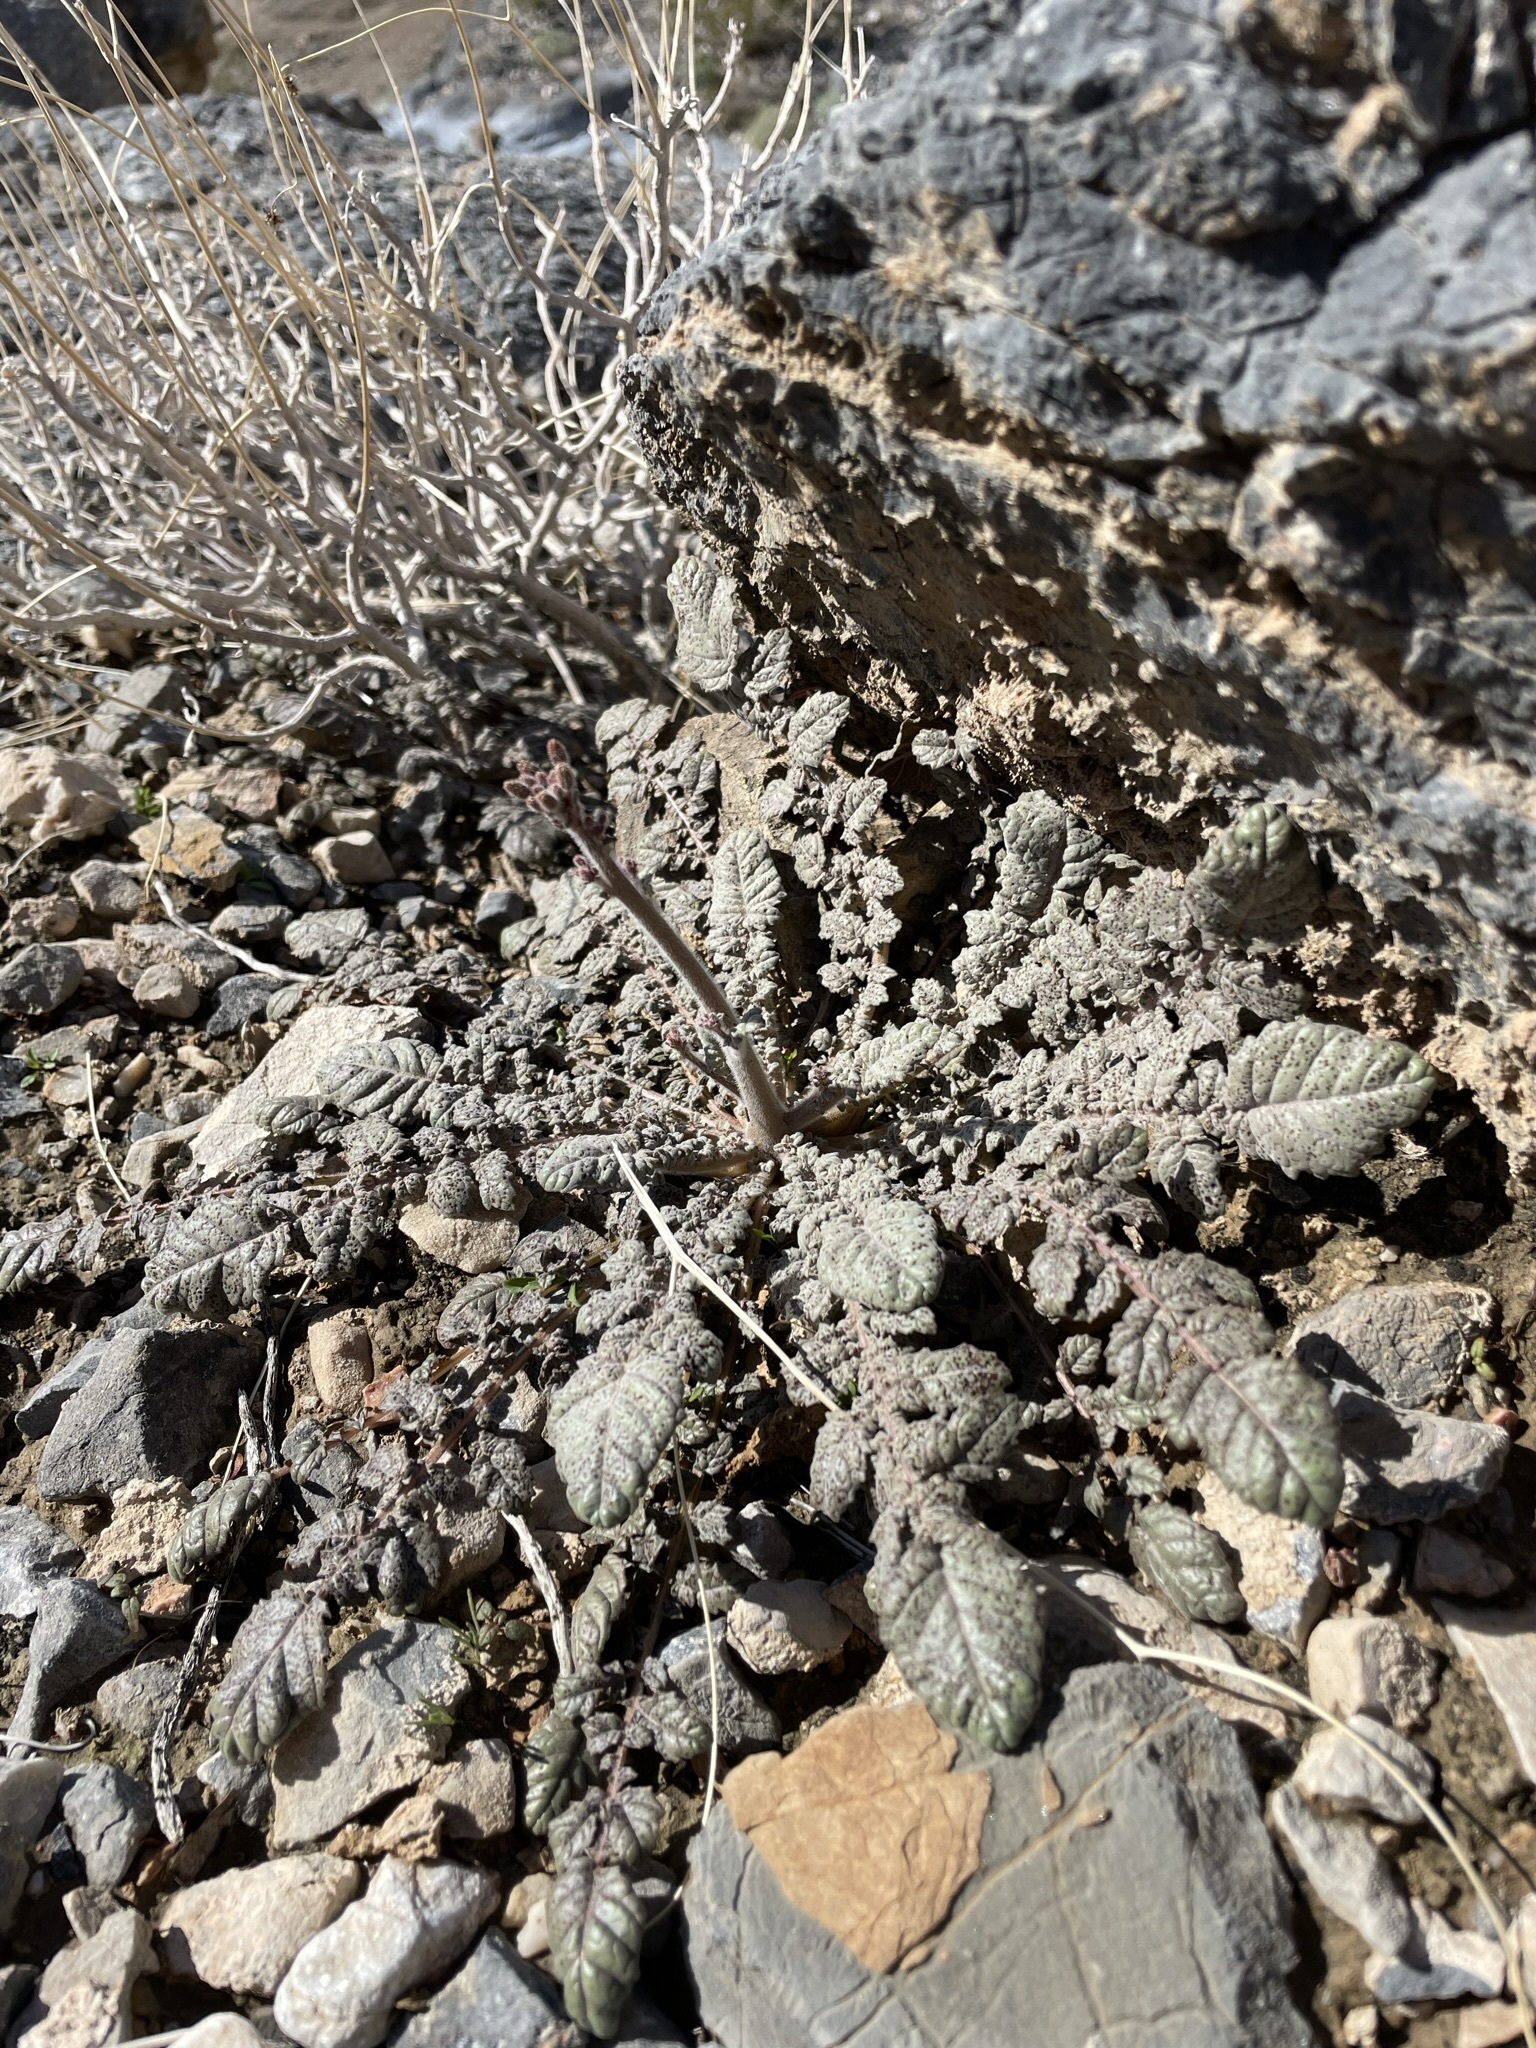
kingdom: Plantae
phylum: Tracheophyta
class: Magnoliopsida
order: Myrtales
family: Onagraceae
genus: Chylismia
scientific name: Chylismia walkeri
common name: Walker's suncup
